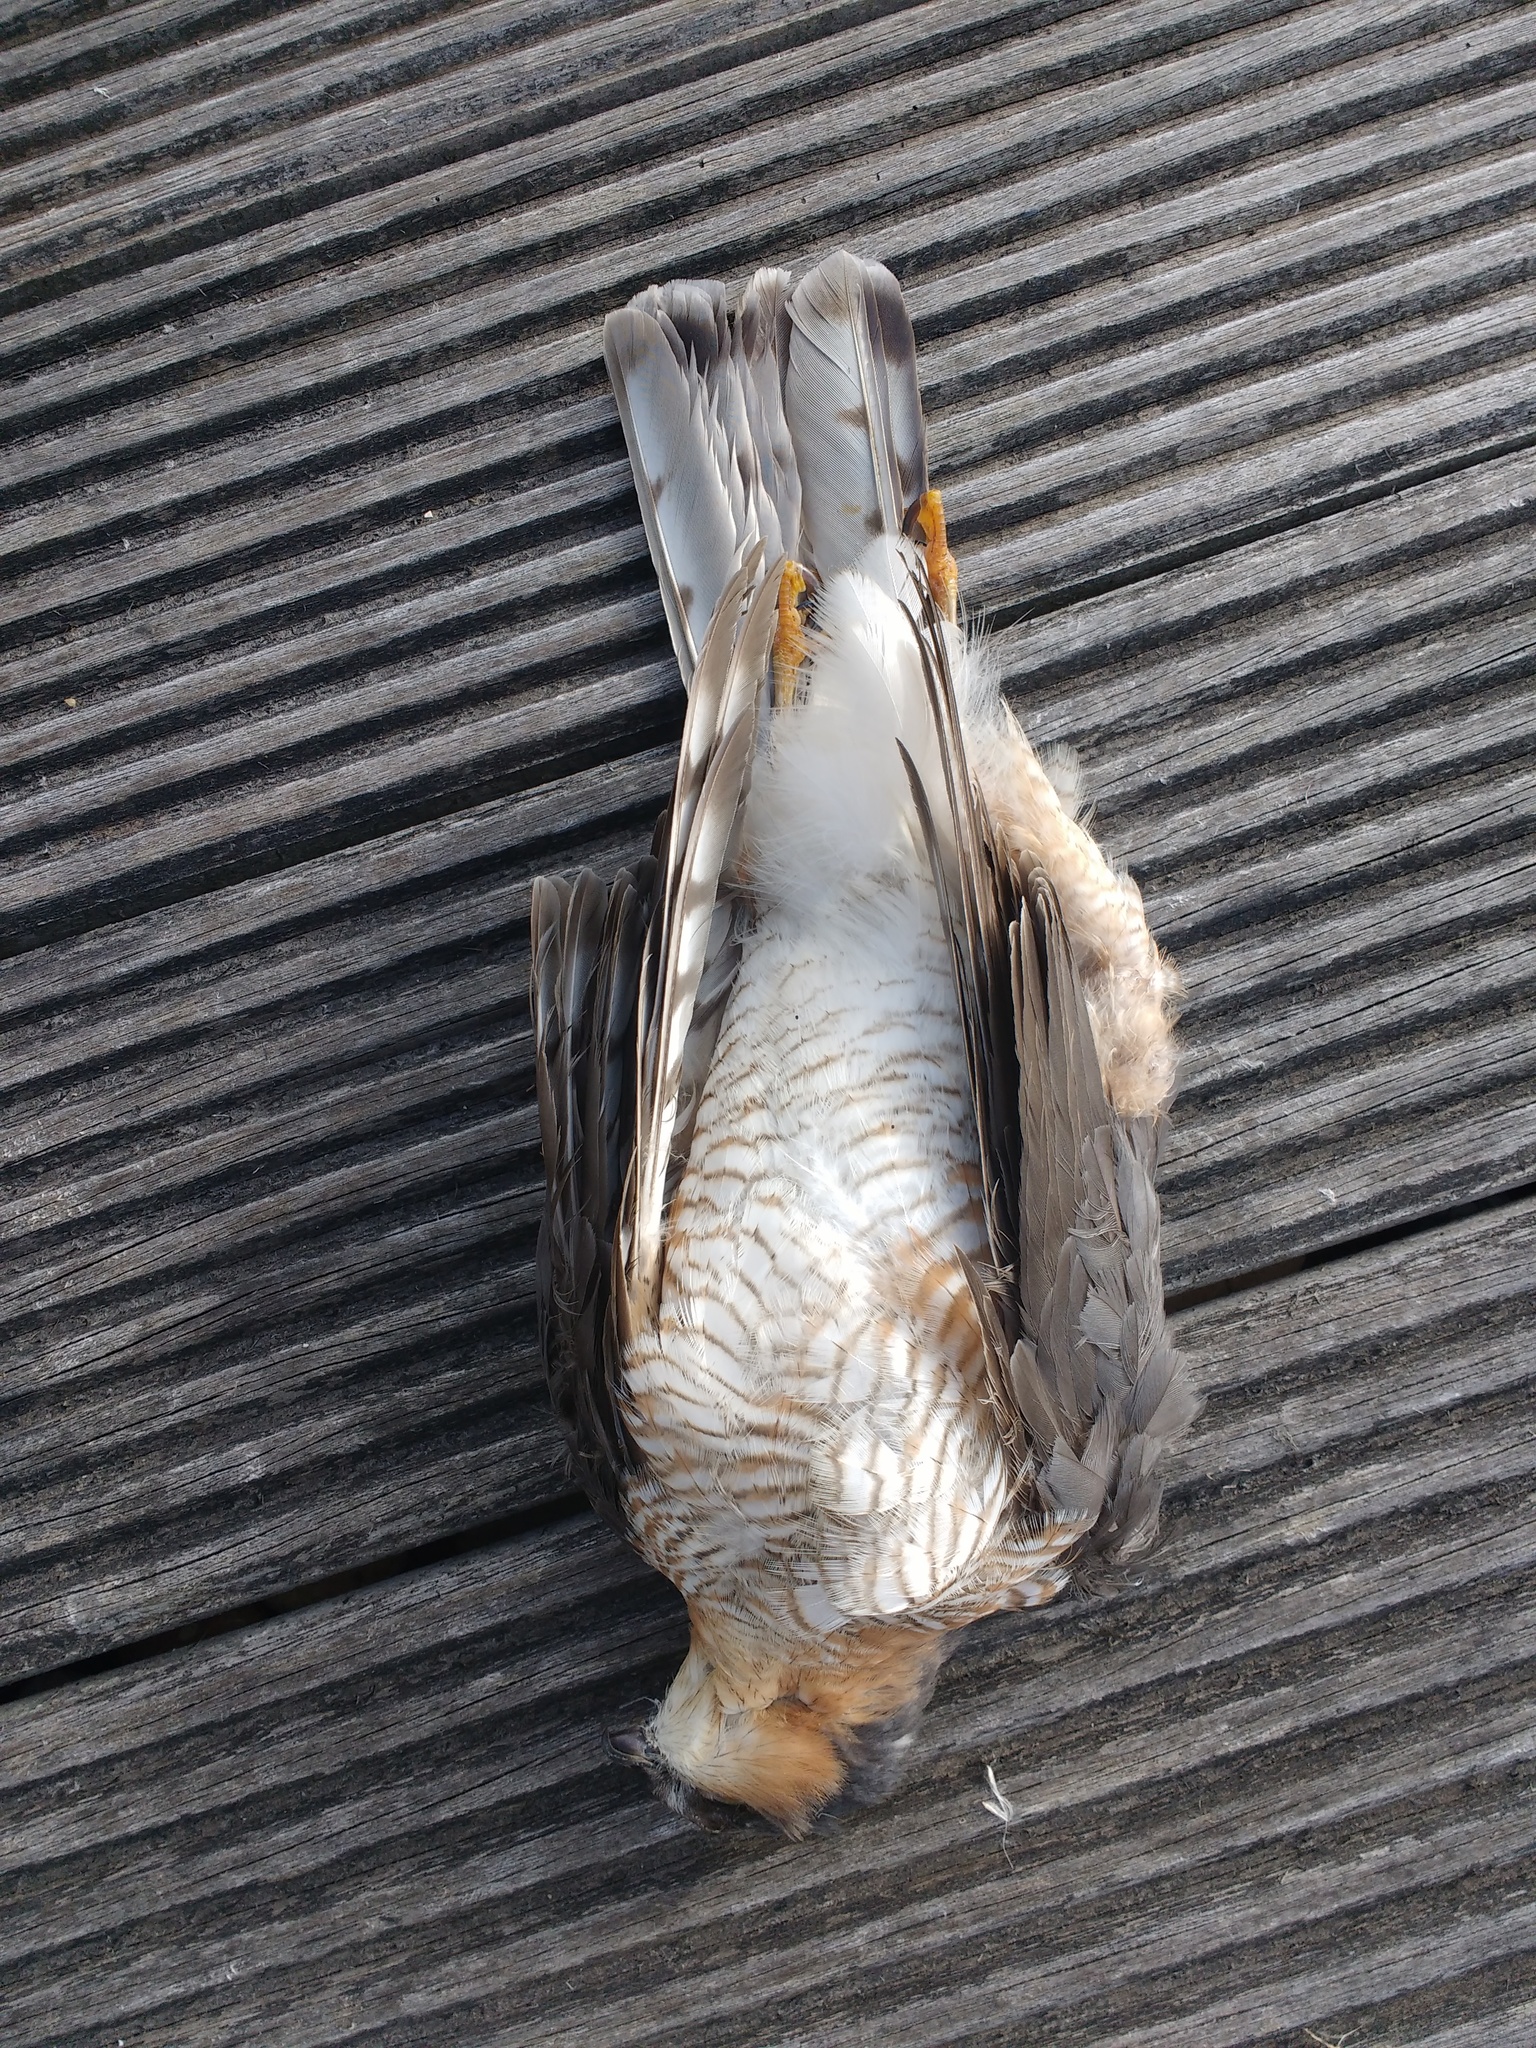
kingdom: Animalia
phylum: Chordata
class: Aves
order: Accipitriformes
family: Accipitridae
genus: Accipiter
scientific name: Accipiter nisus
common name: Eurasian sparrowhawk
